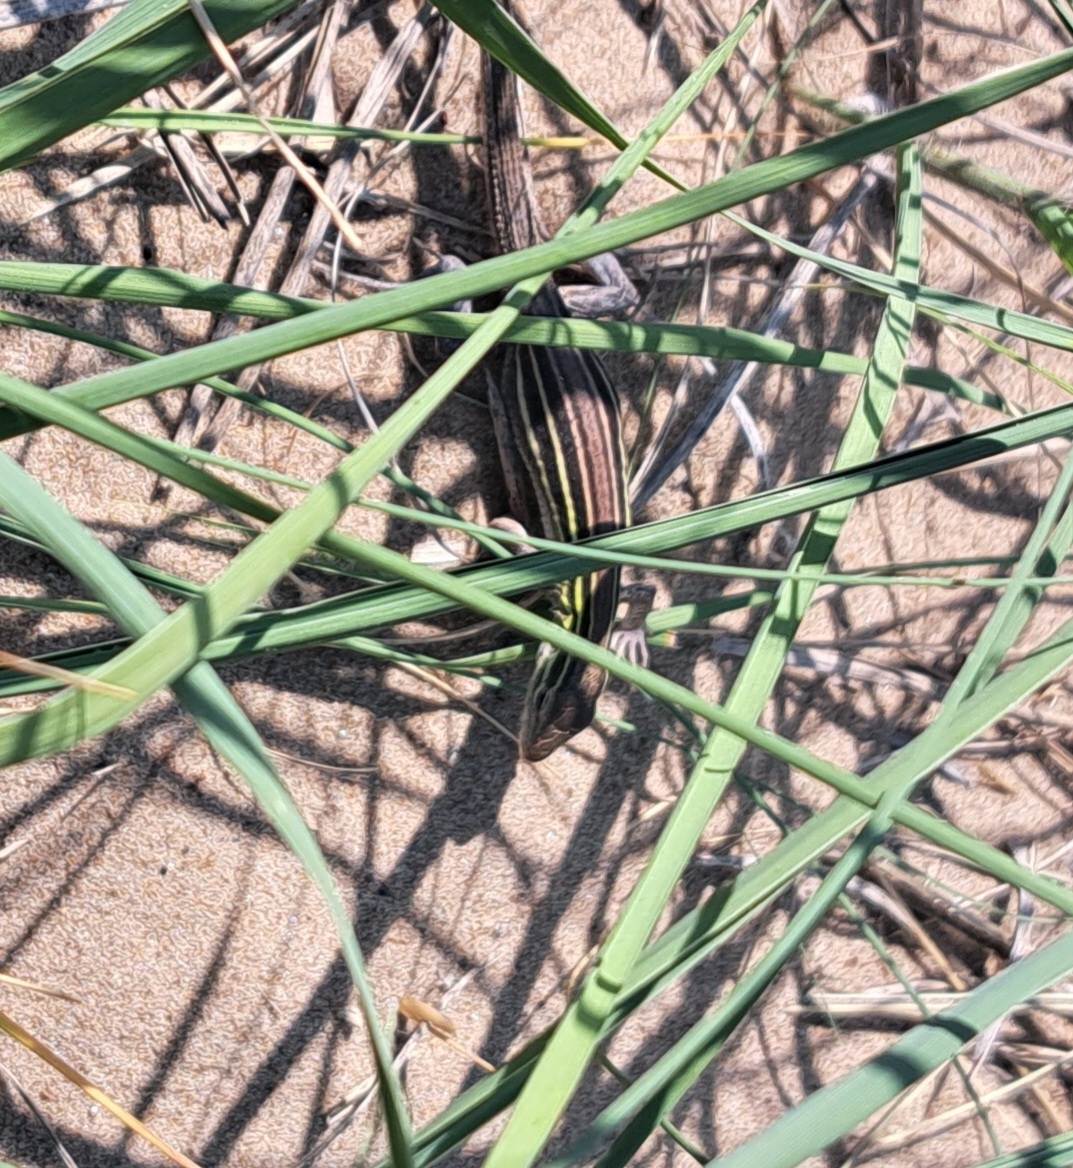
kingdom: Animalia
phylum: Chordata
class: Squamata
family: Teiidae
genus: Aspidoscelis
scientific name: Aspidoscelis sexlineatus
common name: Six-lined racerunner
